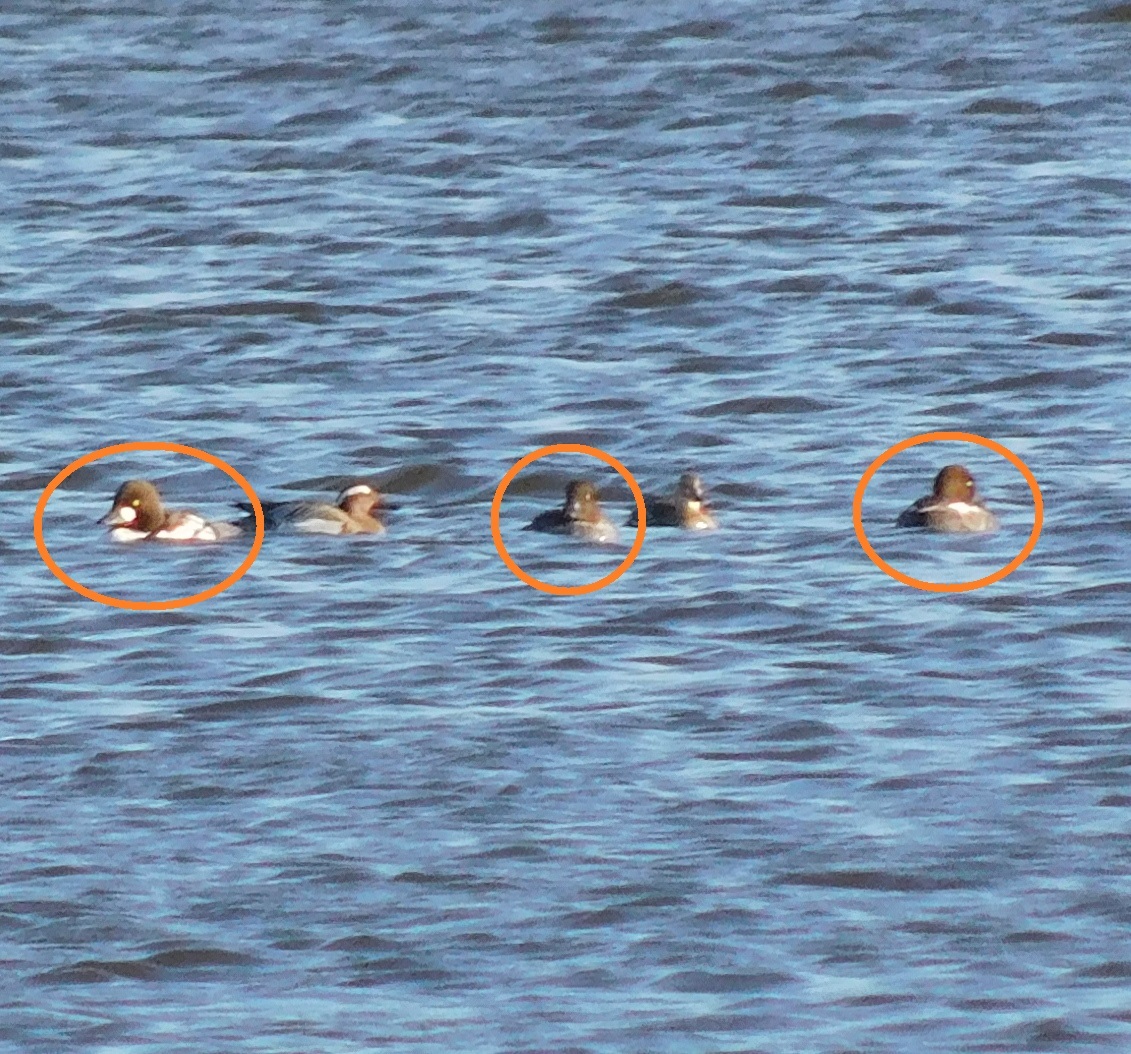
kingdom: Animalia
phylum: Chordata
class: Aves
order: Anseriformes
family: Anatidae
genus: Bucephala
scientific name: Bucephala clangula
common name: Common goldeneye
